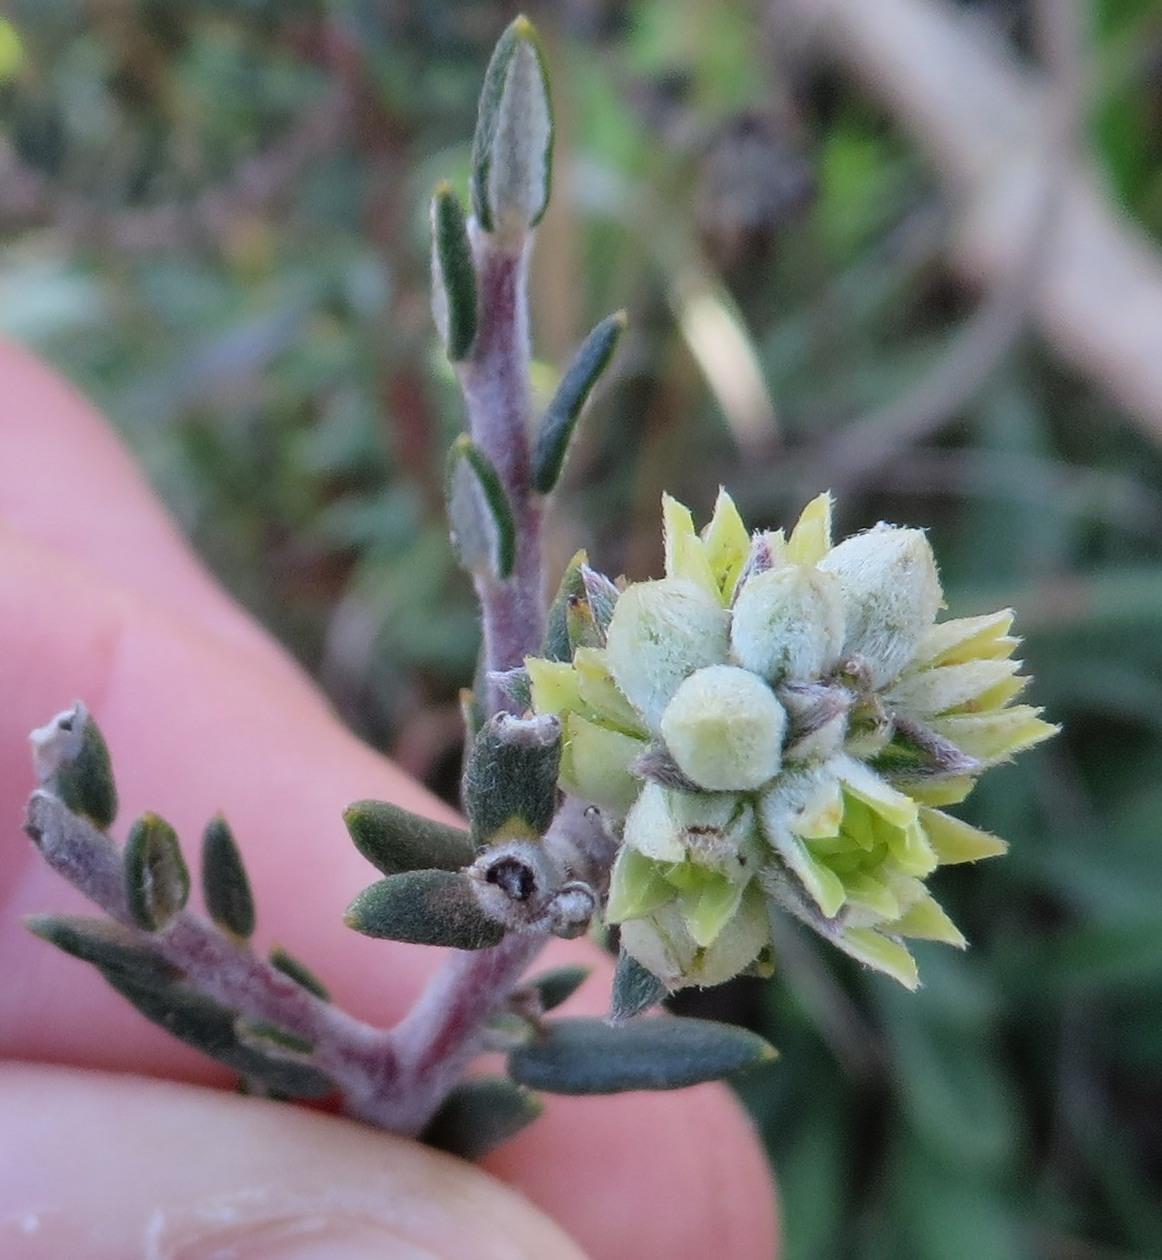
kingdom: Plantae
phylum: Tracheophyta
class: Magnoliopsida
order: Rosales
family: Rhamnaceae
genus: Phylica
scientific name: Phylica strigulosa
